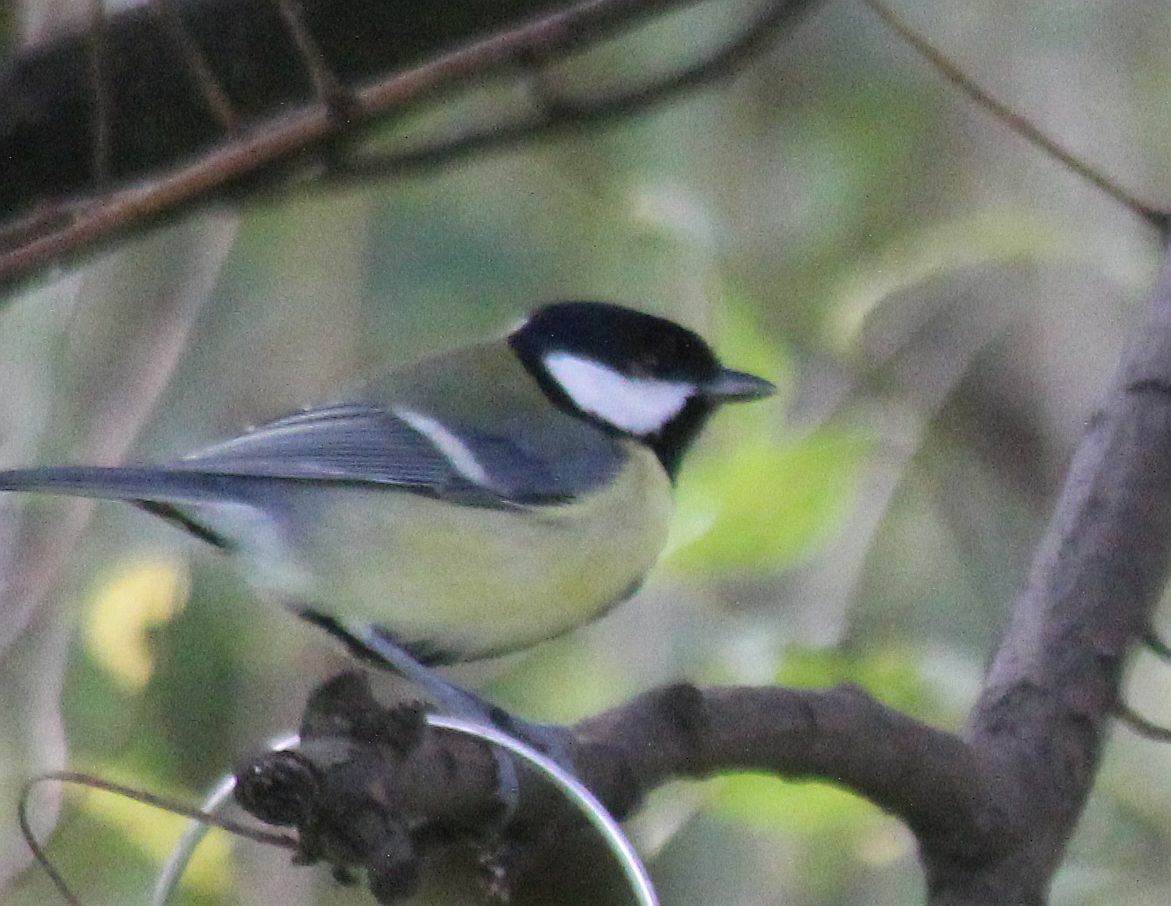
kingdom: Animalia
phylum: Chordata
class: Aves
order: Passeriformes
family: Paridae
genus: Parus
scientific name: Parus major
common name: Great tit
